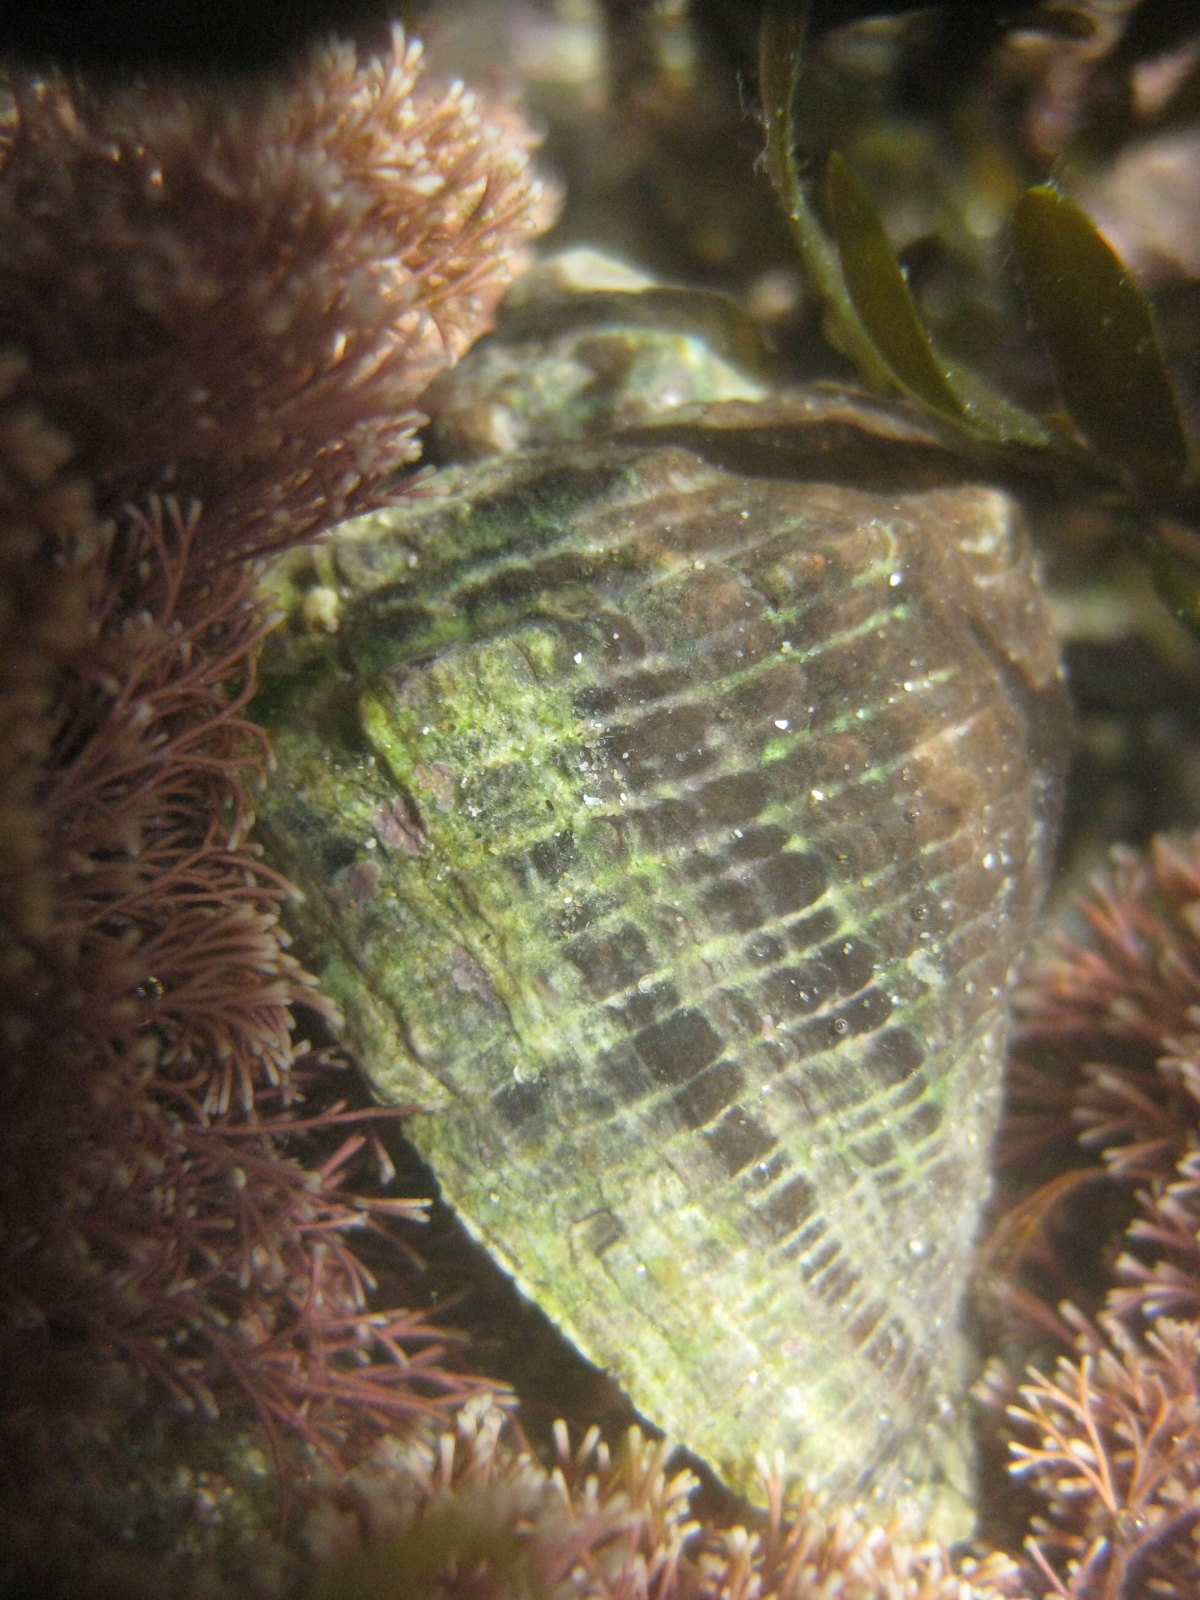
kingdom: Animalia
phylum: Mollusca
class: Gastropoda
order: Neogastropoda
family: Muricidae
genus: Haustrum
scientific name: Haustrum haustorium
